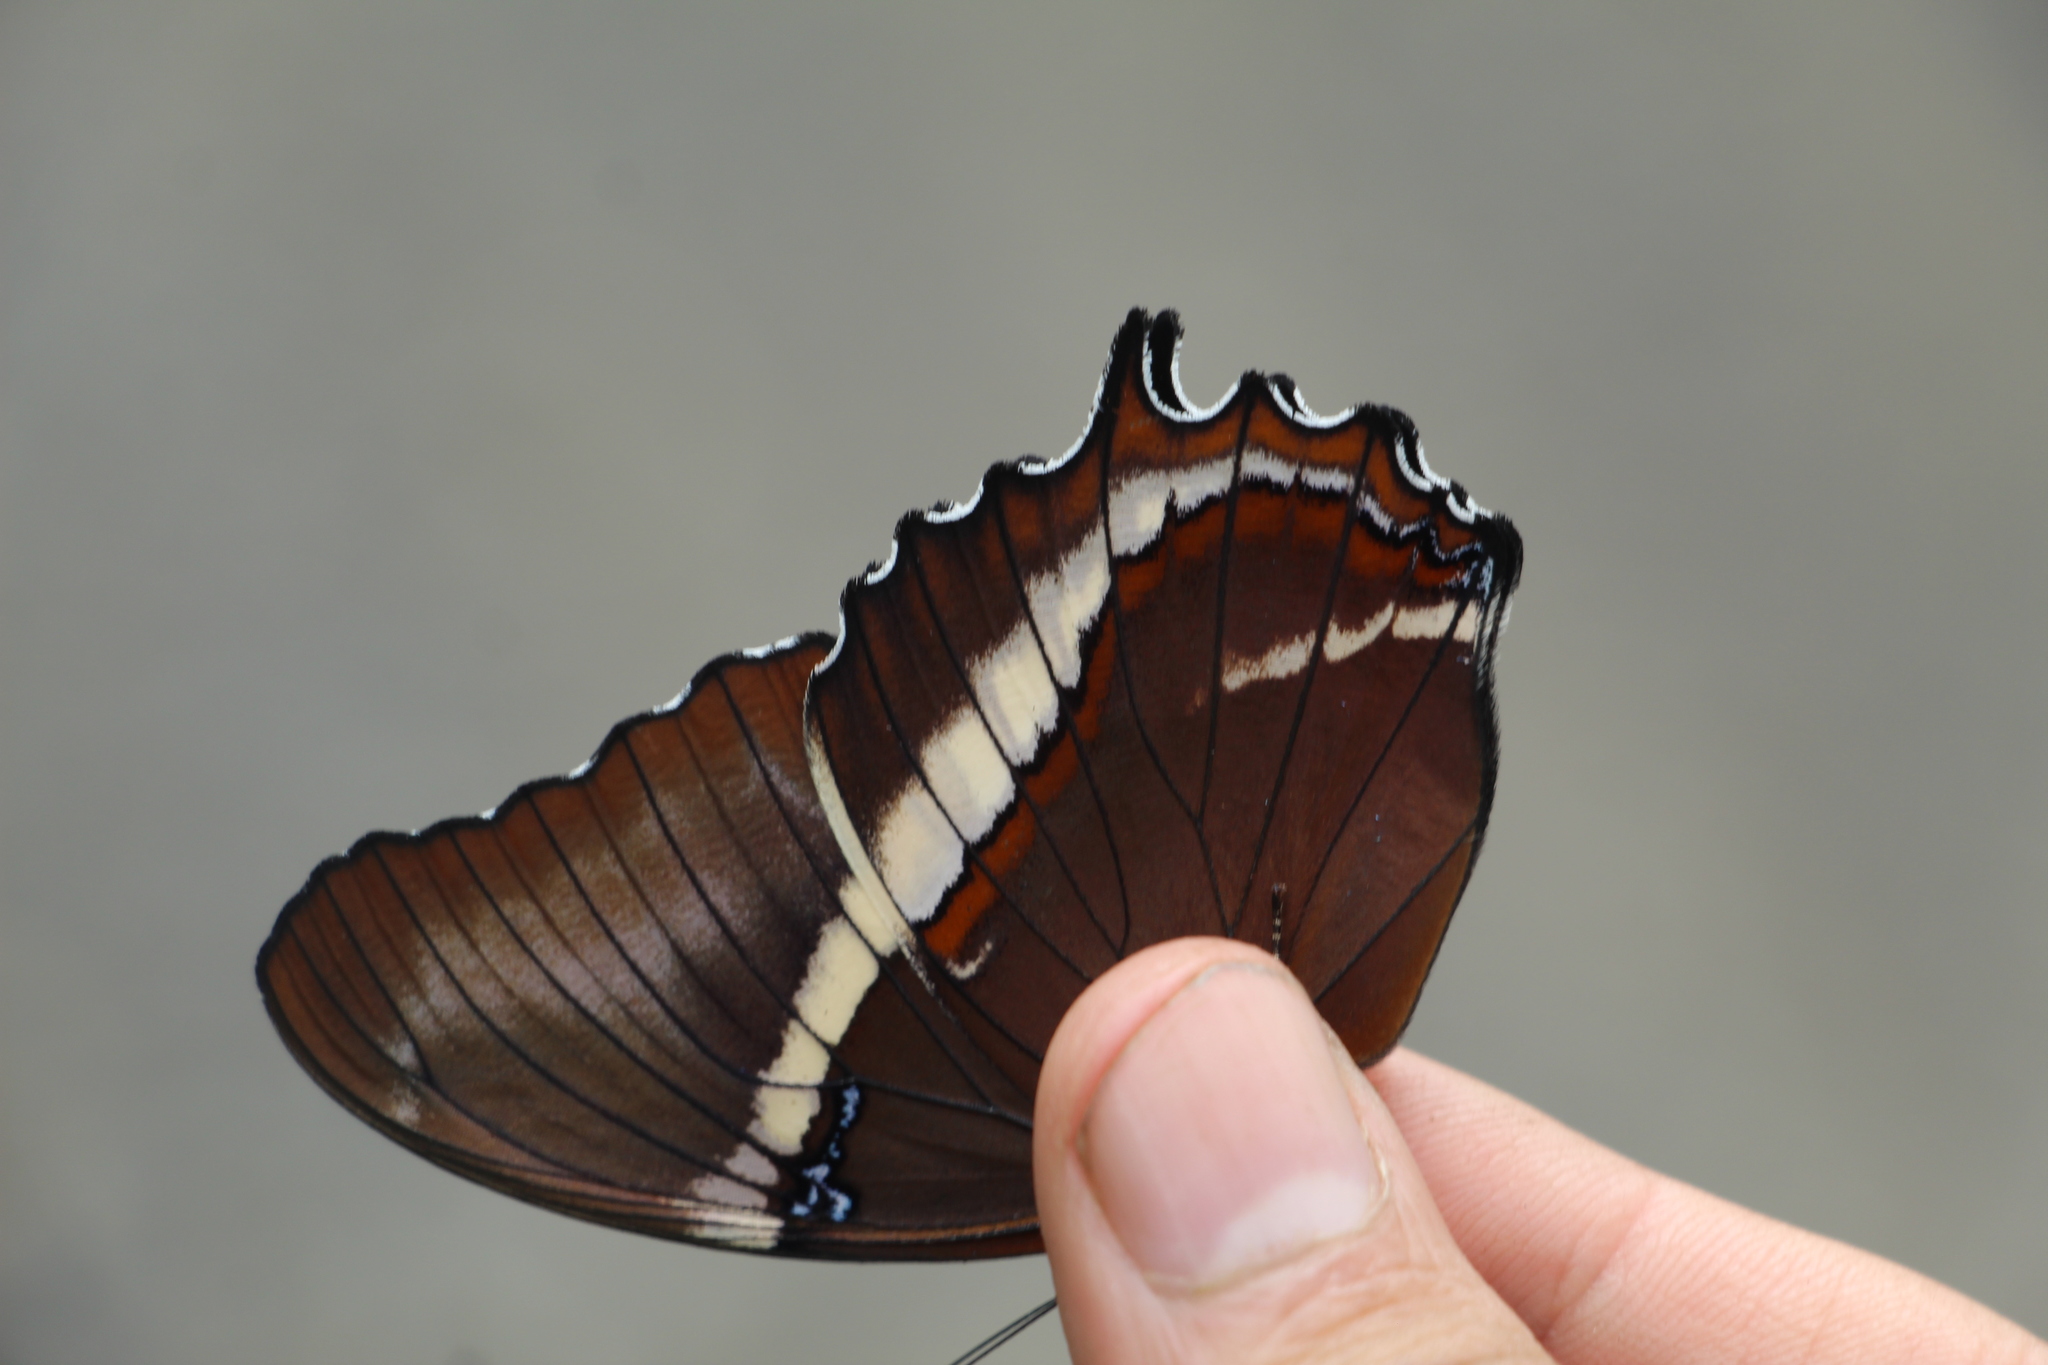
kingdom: Animalia
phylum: Arthropoda
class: Insecta
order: Lepidoptera
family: Nymphalidae
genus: Siproeta
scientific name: Siproeta epaphus
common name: Rusty-tipped page
